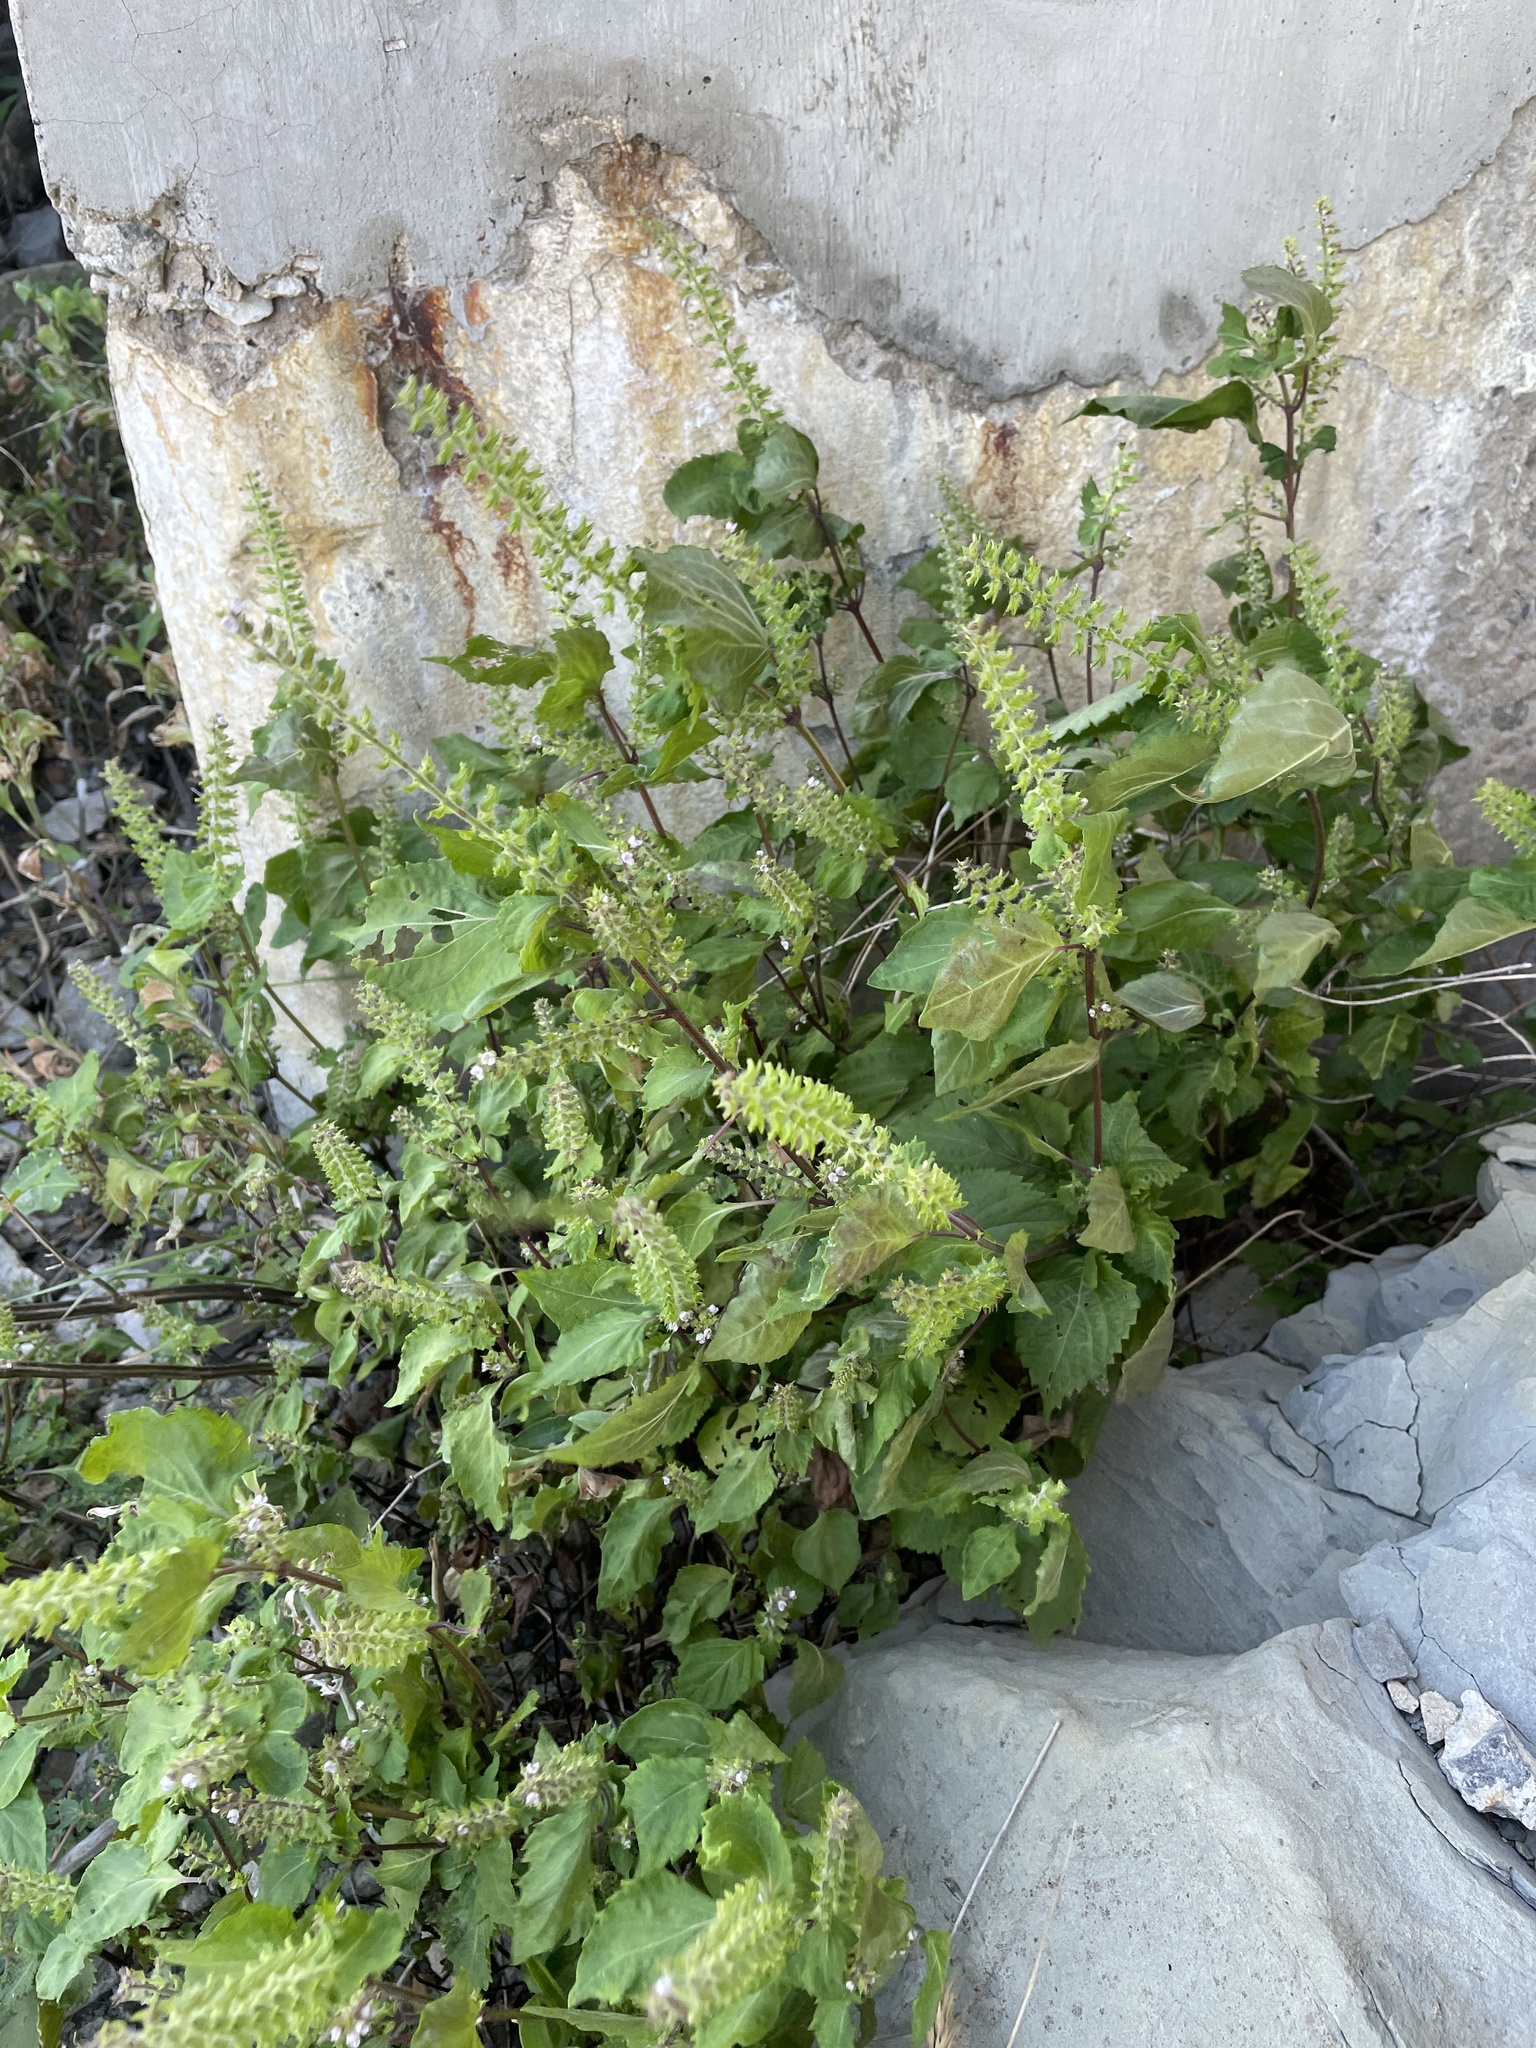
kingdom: Plantae
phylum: Tracheophyta
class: Magnoliopsida
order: Lamiales
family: Lamiaceae
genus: Perilla
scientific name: Perilla frutescens
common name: Perilla
